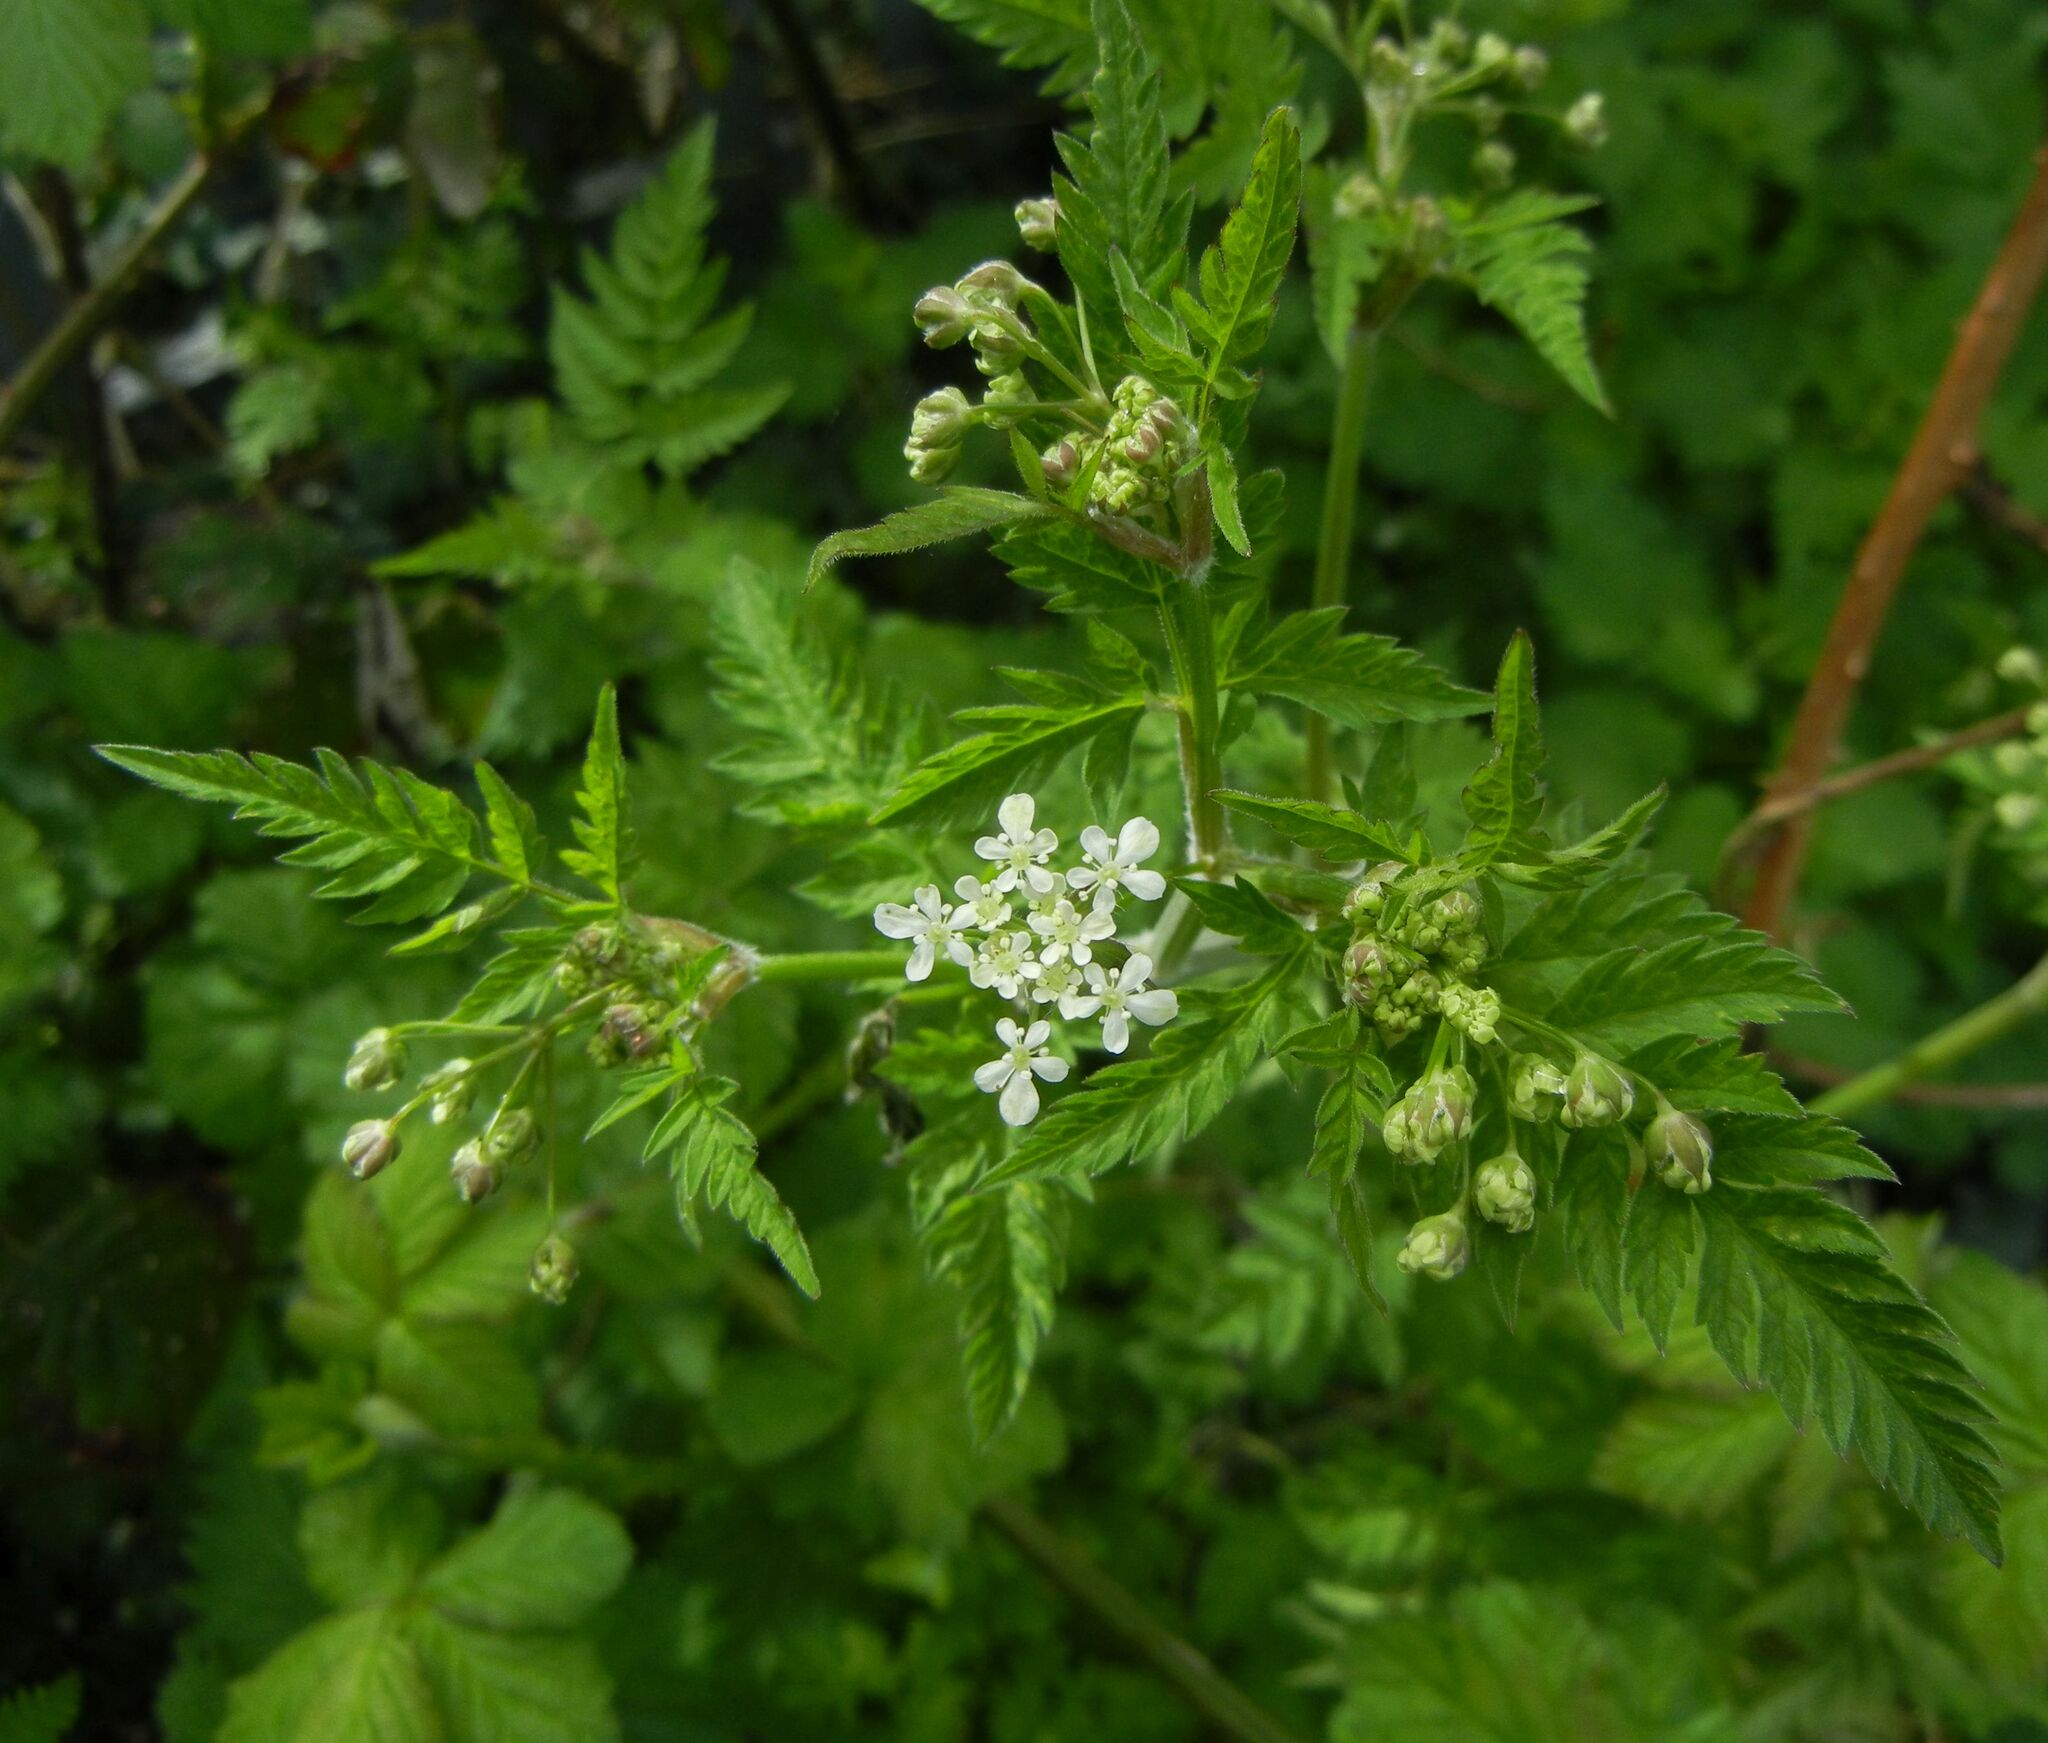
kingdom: Plantae
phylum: Tracheophyta
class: Magnoliopsida
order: Apiales
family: Apiaceae
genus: Anthriscus
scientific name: Anthriscus sylvestris
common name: Cow parsley
